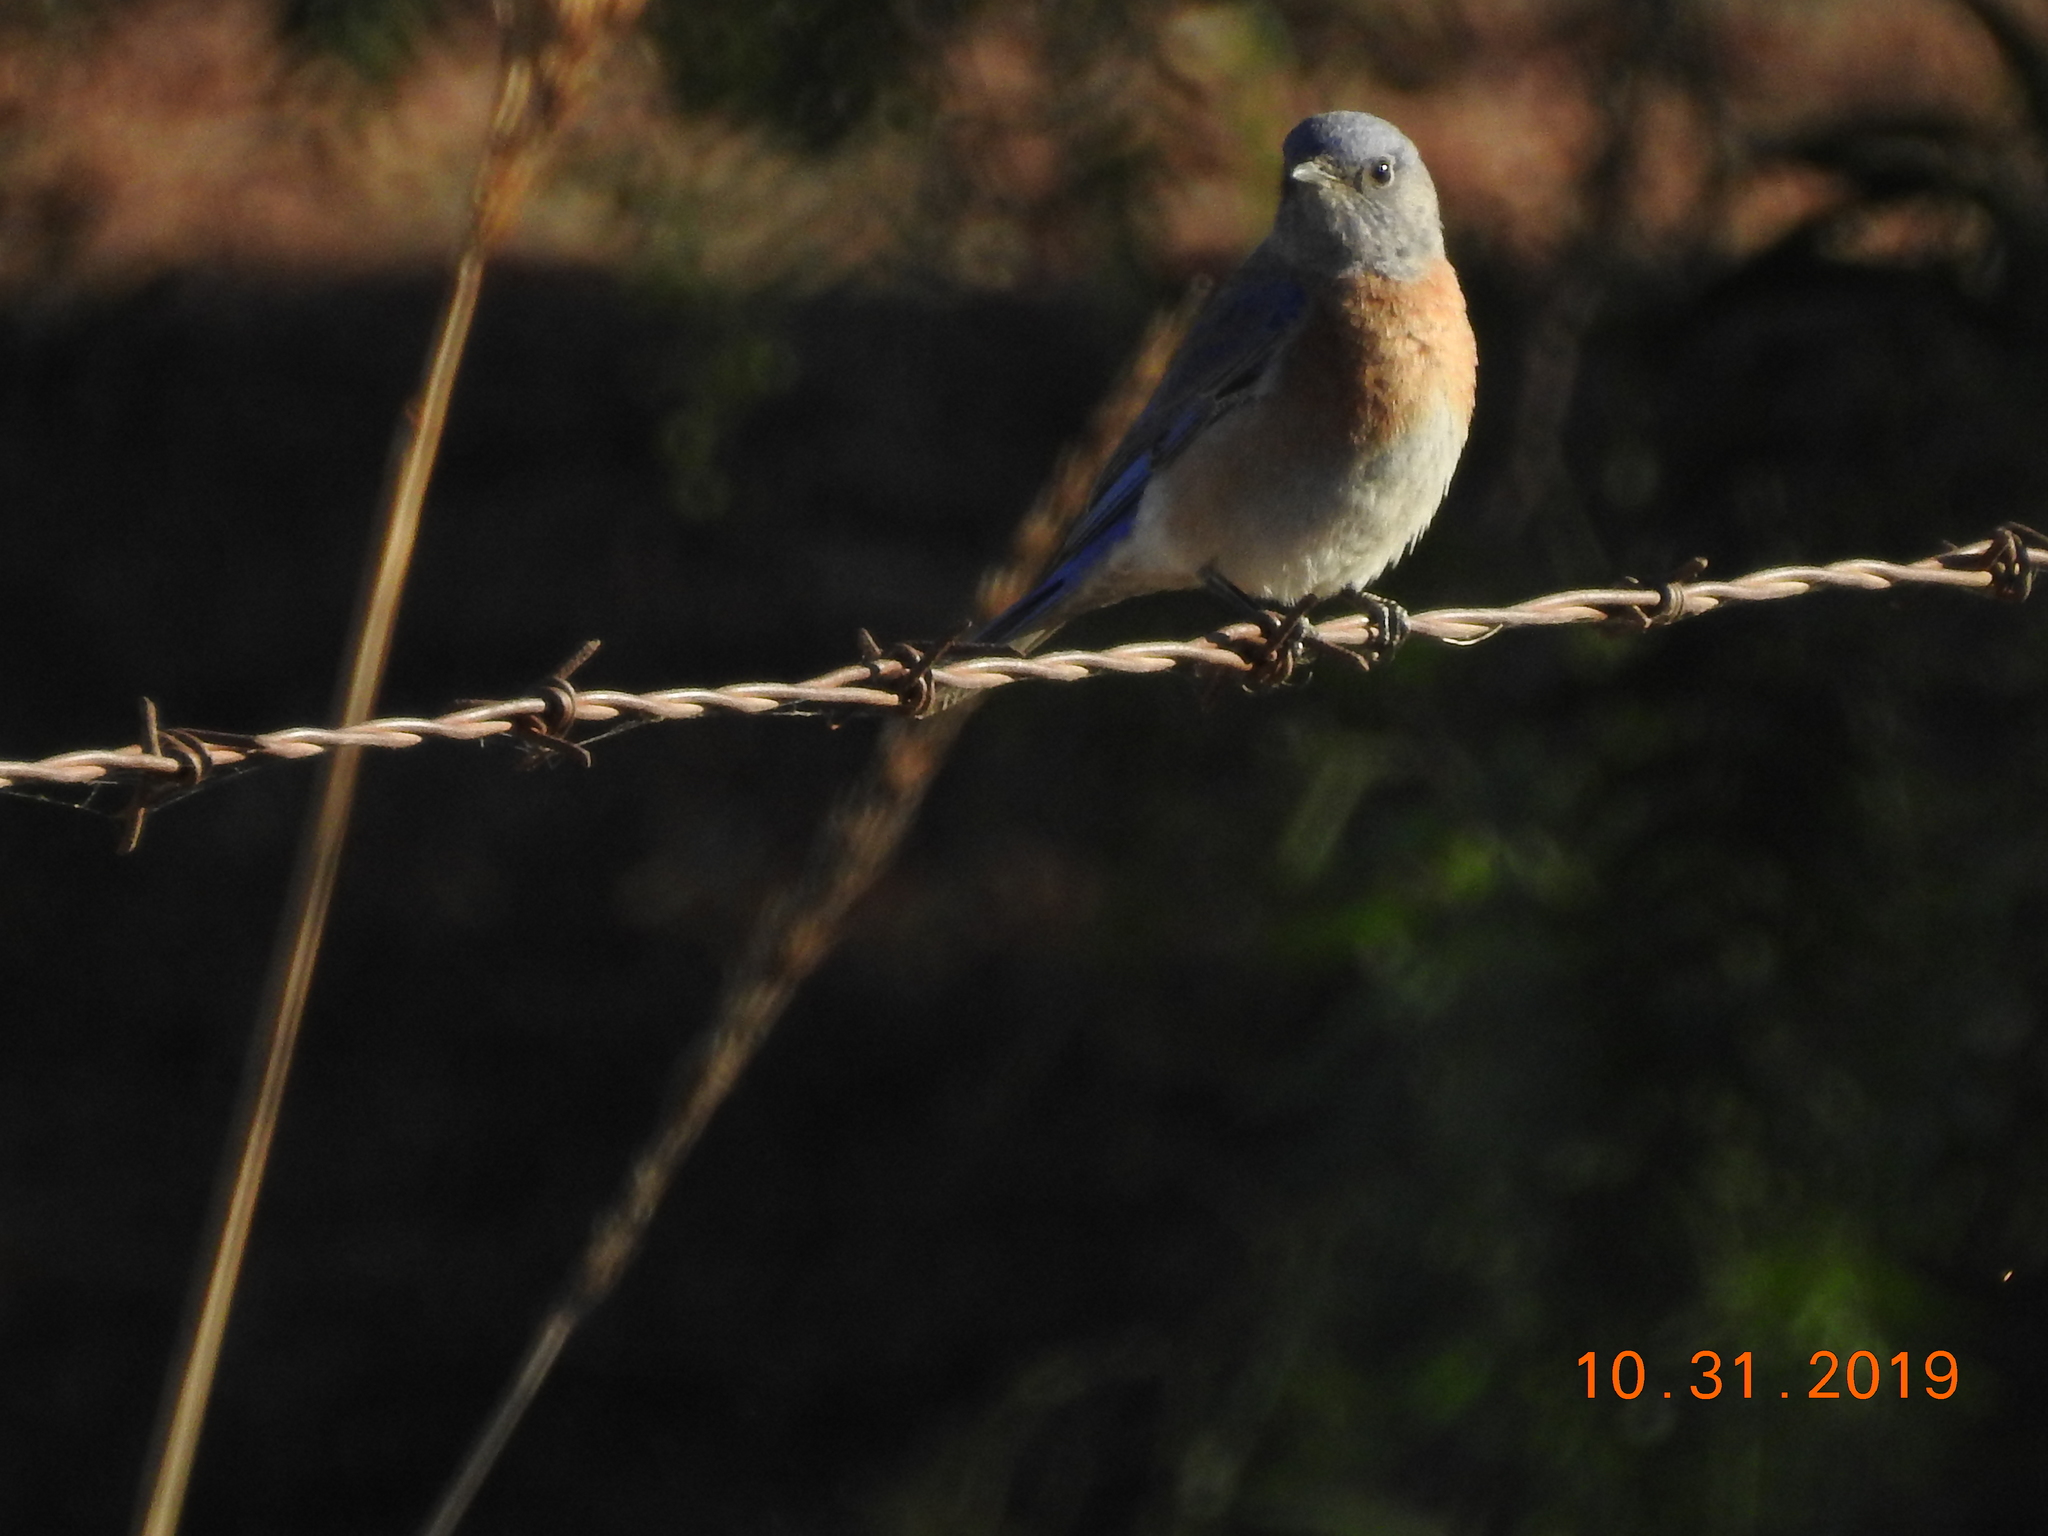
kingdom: Animalia
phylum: Chordata
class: Aves
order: Passeriformes
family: Turdidae
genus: Sialia
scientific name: Sialia mexicana
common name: Western bluebird
